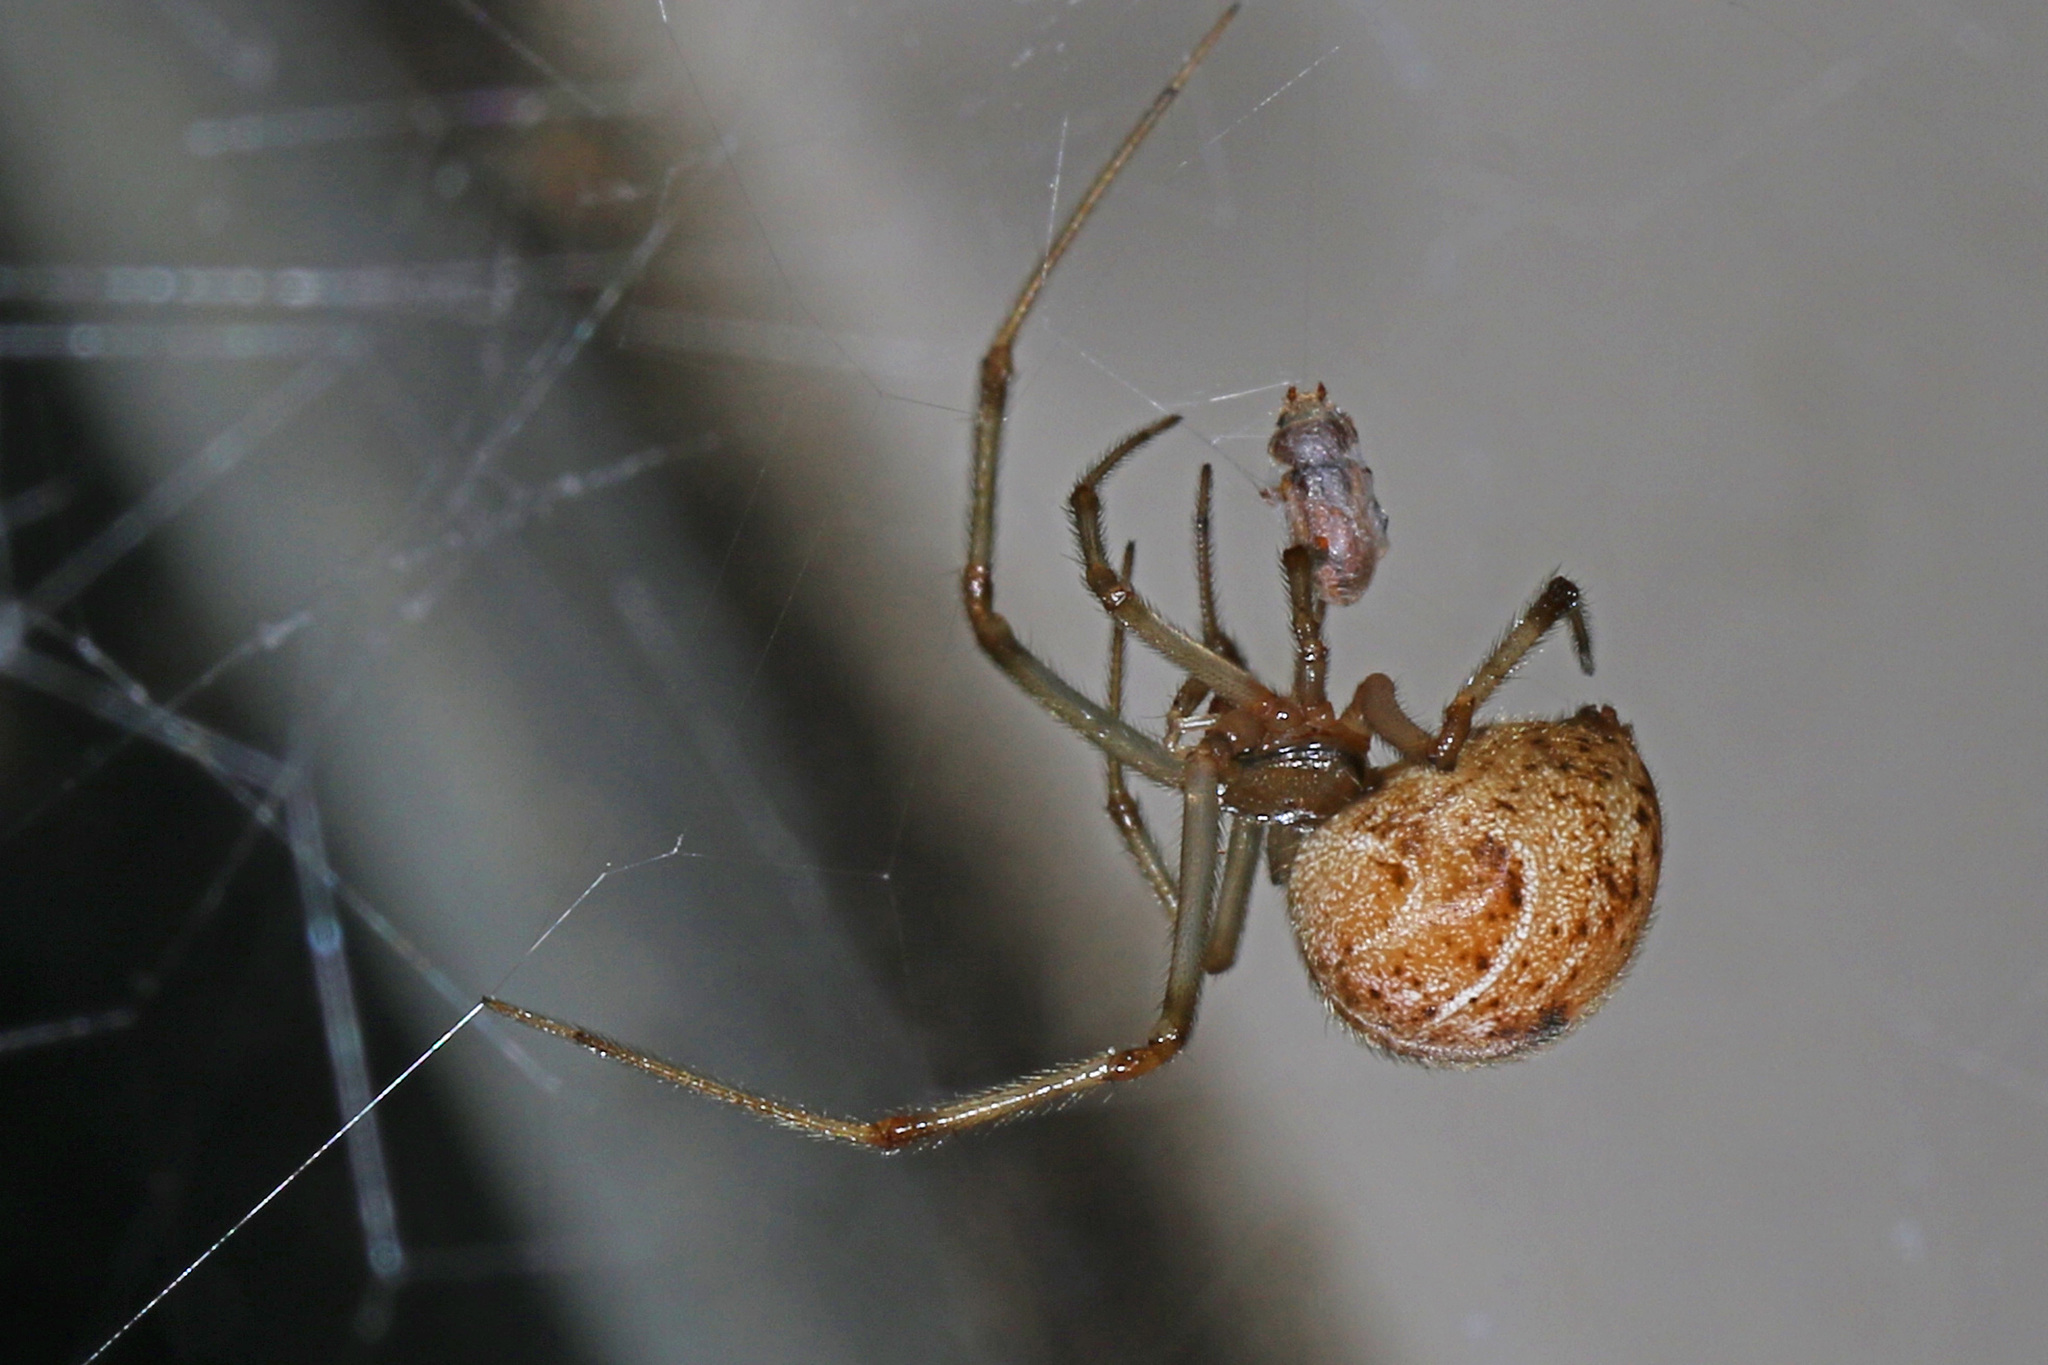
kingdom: Animalia
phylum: Arthropoda
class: Arachnida
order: Araneae
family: Theridiidae
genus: Parasteatoda
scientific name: Parasteatoda tepidariorum
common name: Common house spider
